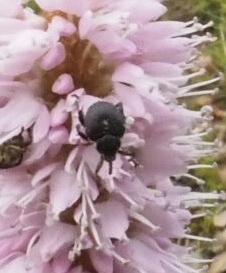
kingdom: Animalia
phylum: Arthropoda
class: Insecta
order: Coleoptera
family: Curculionidae
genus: Mononychus
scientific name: Mononychus punctumalbum
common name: Iris weevil
